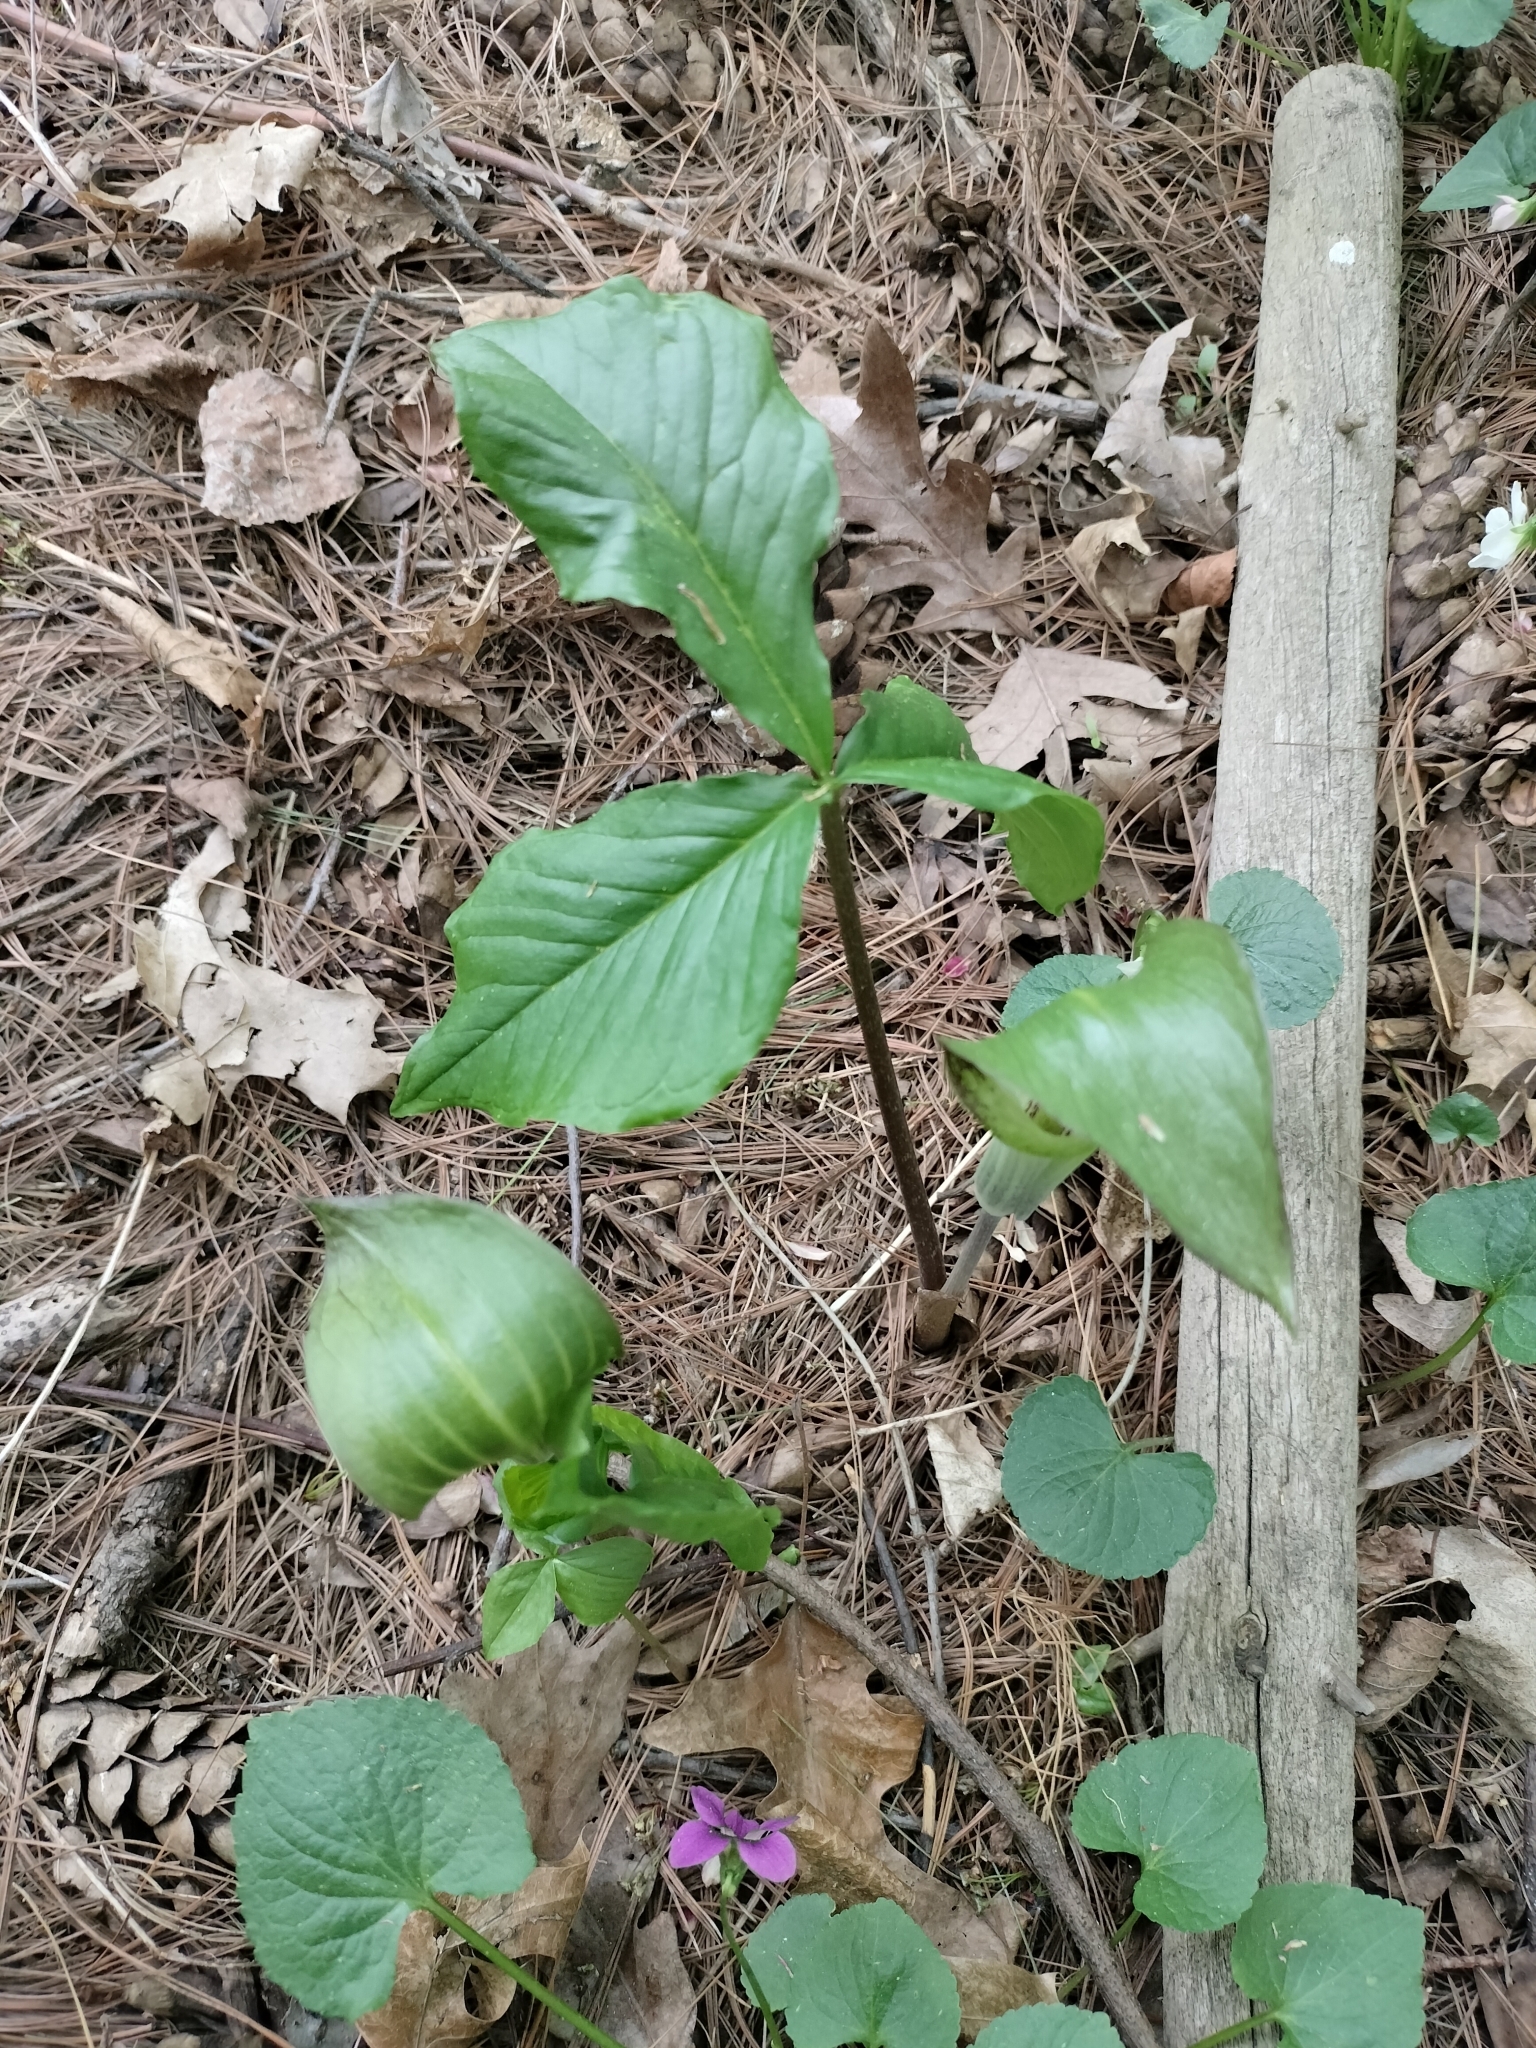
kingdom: Plantae
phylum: Tracheophyta
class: Liliopsida
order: Alismatales
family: Araceae
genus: Arisaema
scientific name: Arisaema triphyllum
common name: Jack-in-the-pulpit
